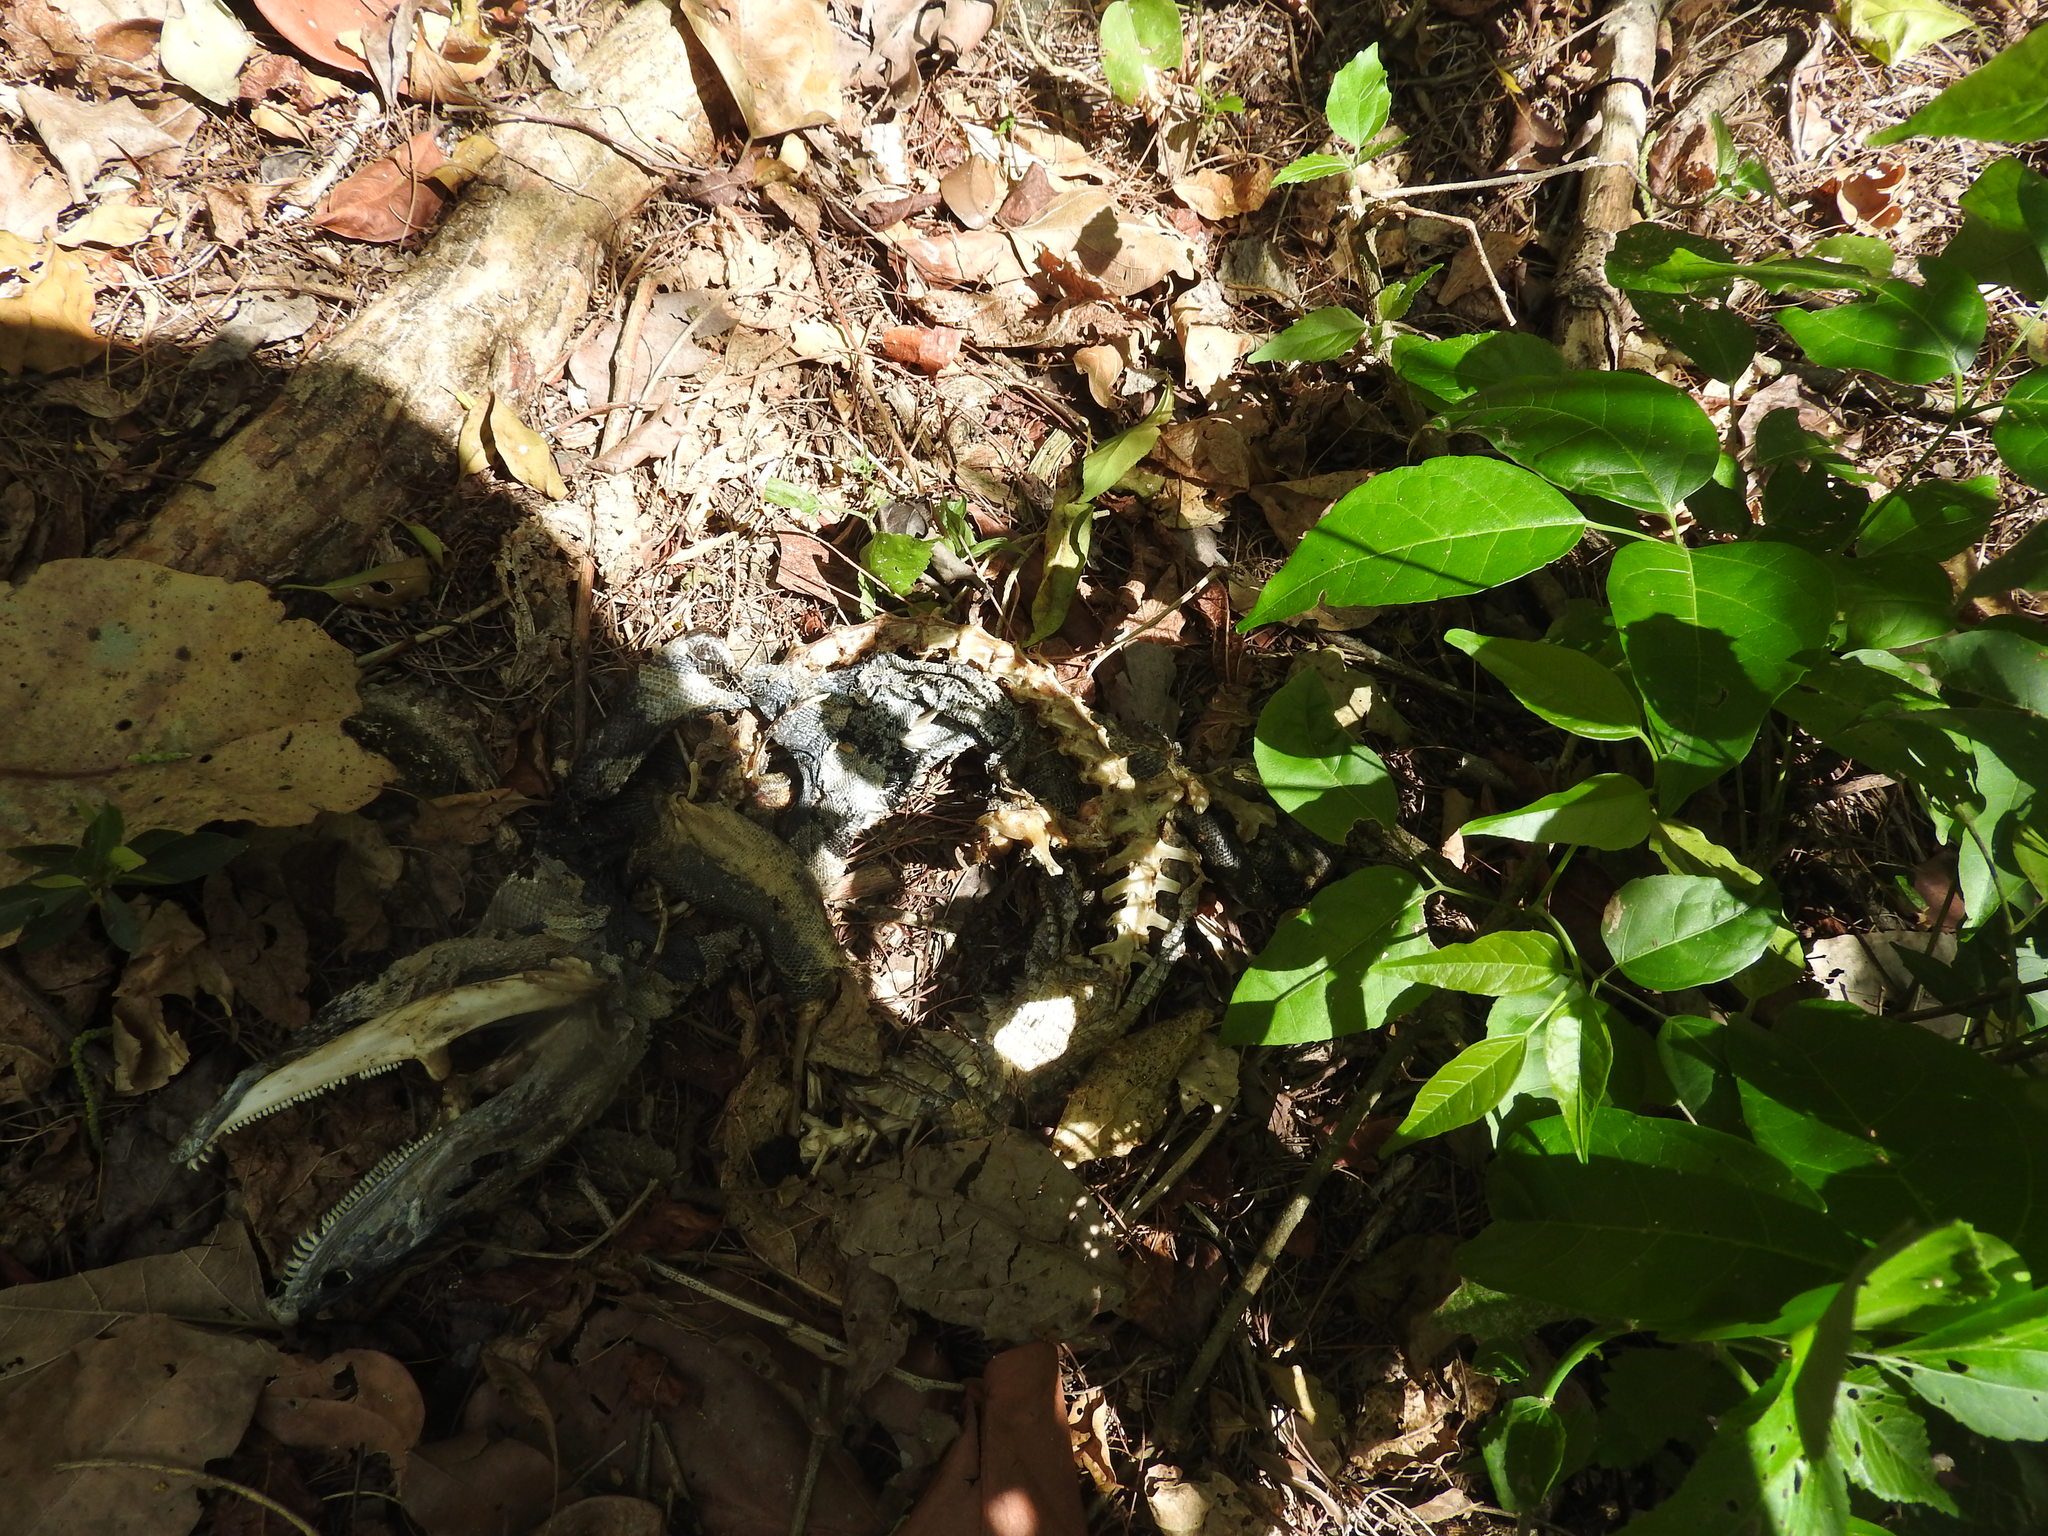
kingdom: Animalia
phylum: Chordata
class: Squamata
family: Iguanidae
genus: Ctenosaura
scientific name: Ctenosaura similis
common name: Black spiny-tailed iguana
